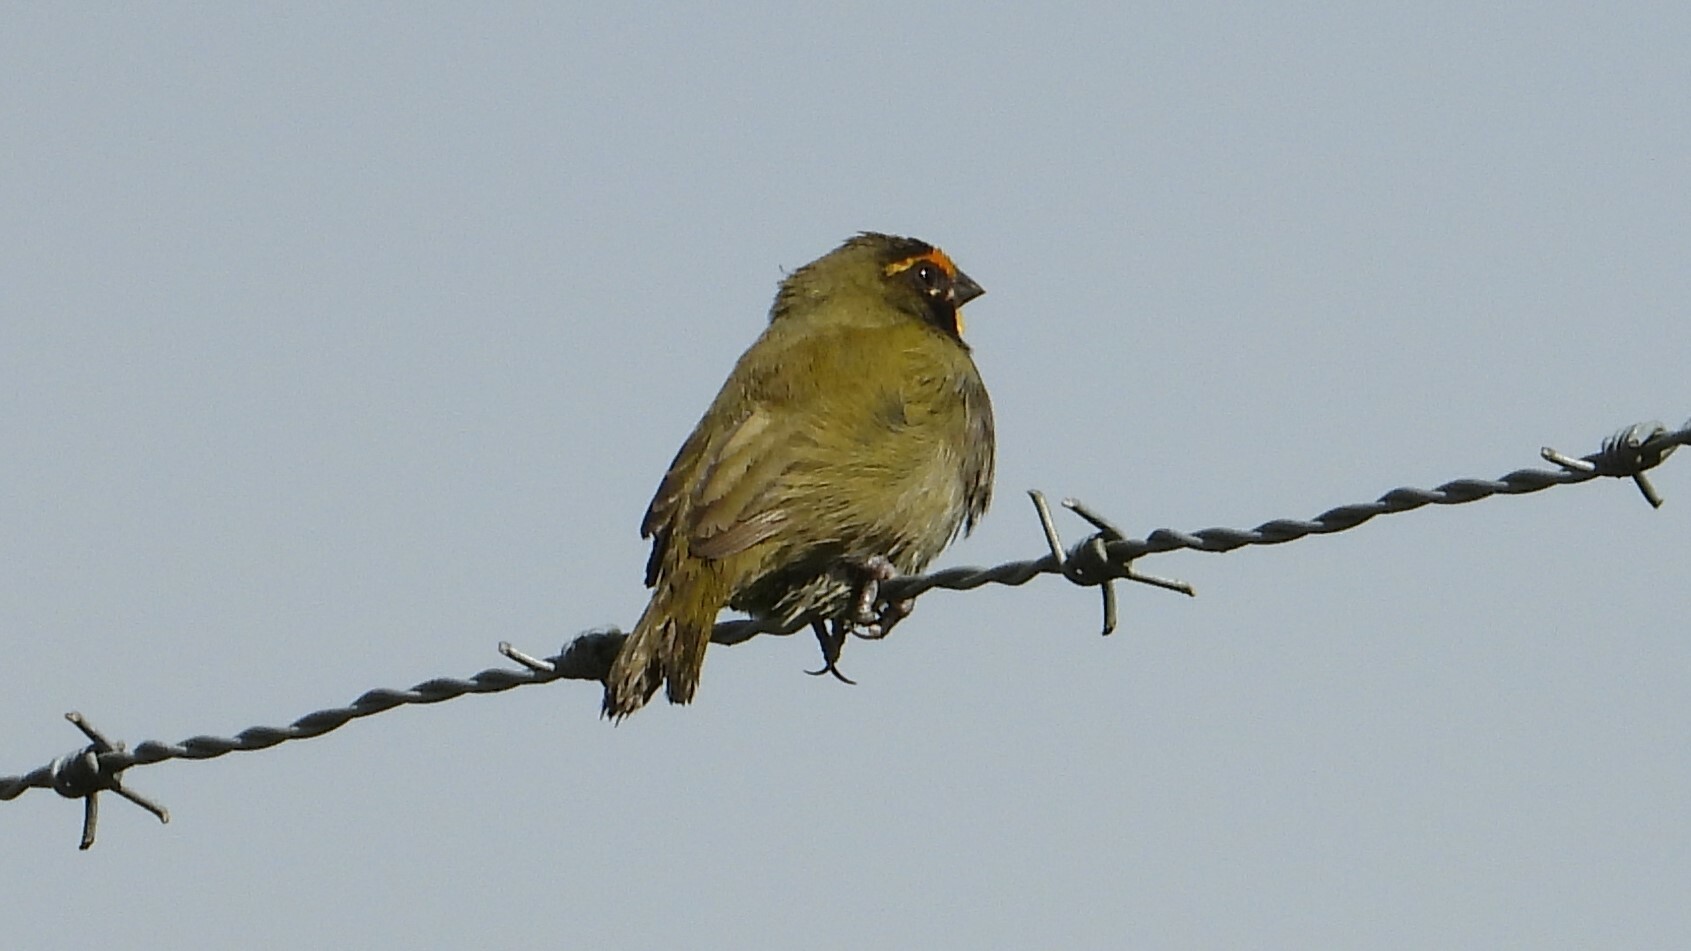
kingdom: Animalia
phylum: Chordata
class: Aves
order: Passeriformes
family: Thraupidae
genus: Tiaris
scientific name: Tiaris olivaceus
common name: Yellow-faced grassquit
